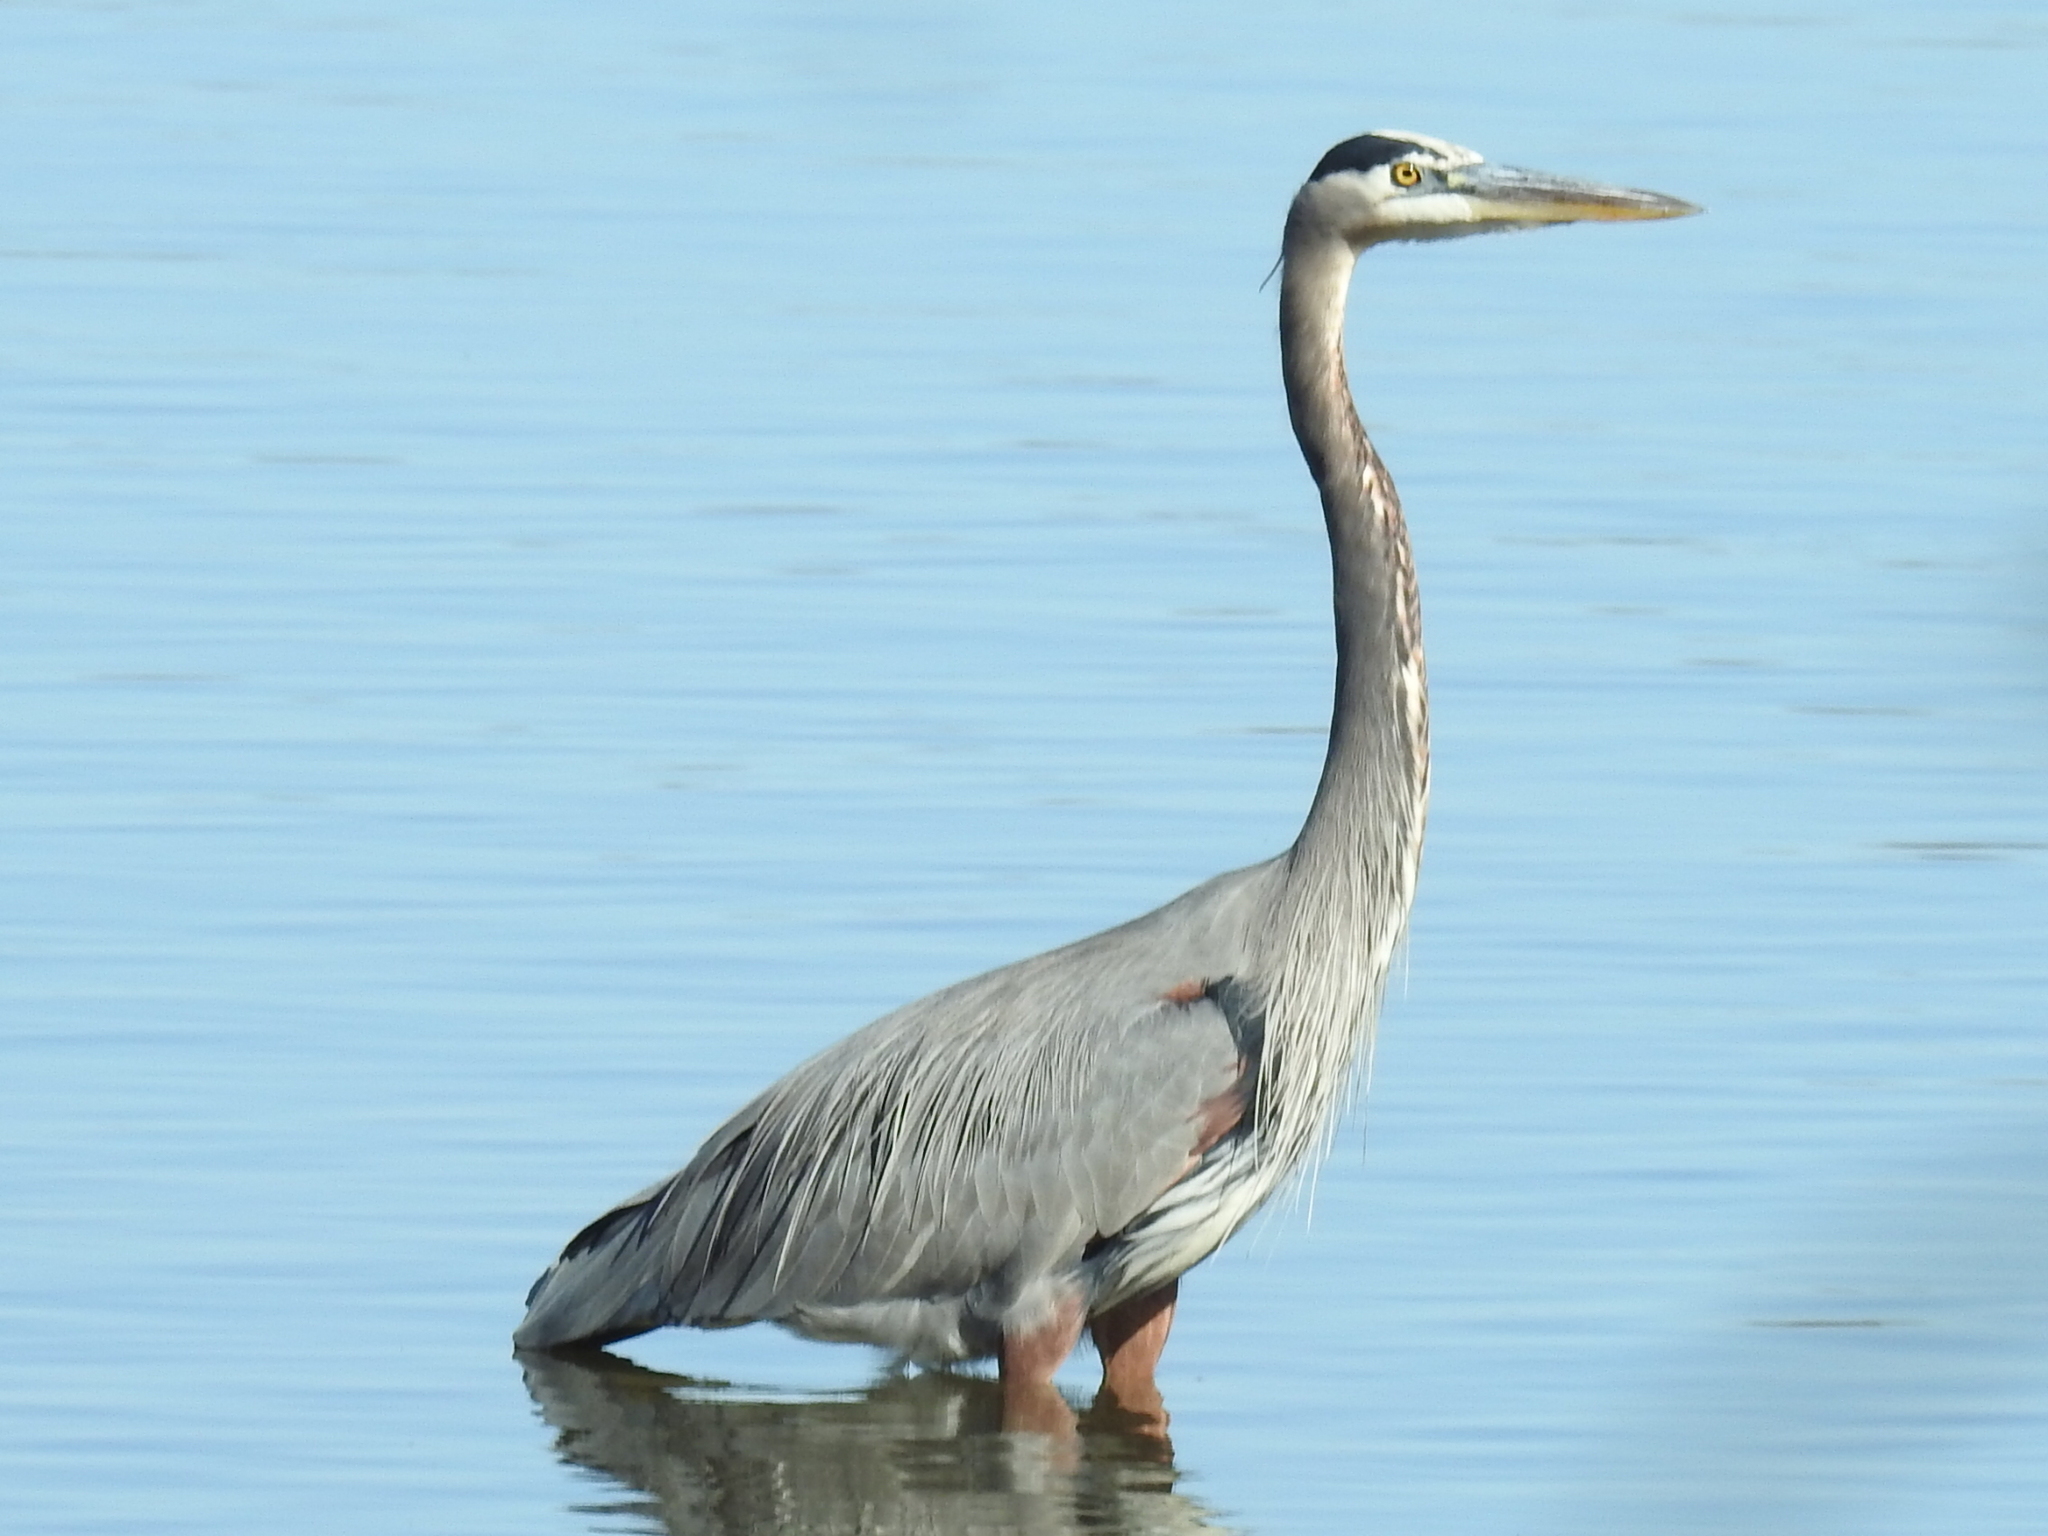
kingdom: Animalia
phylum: Chordata
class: Aves
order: Pelecaniformes
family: Ardeidae
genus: Ardea
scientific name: Ardea herodias
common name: Great blue heron
